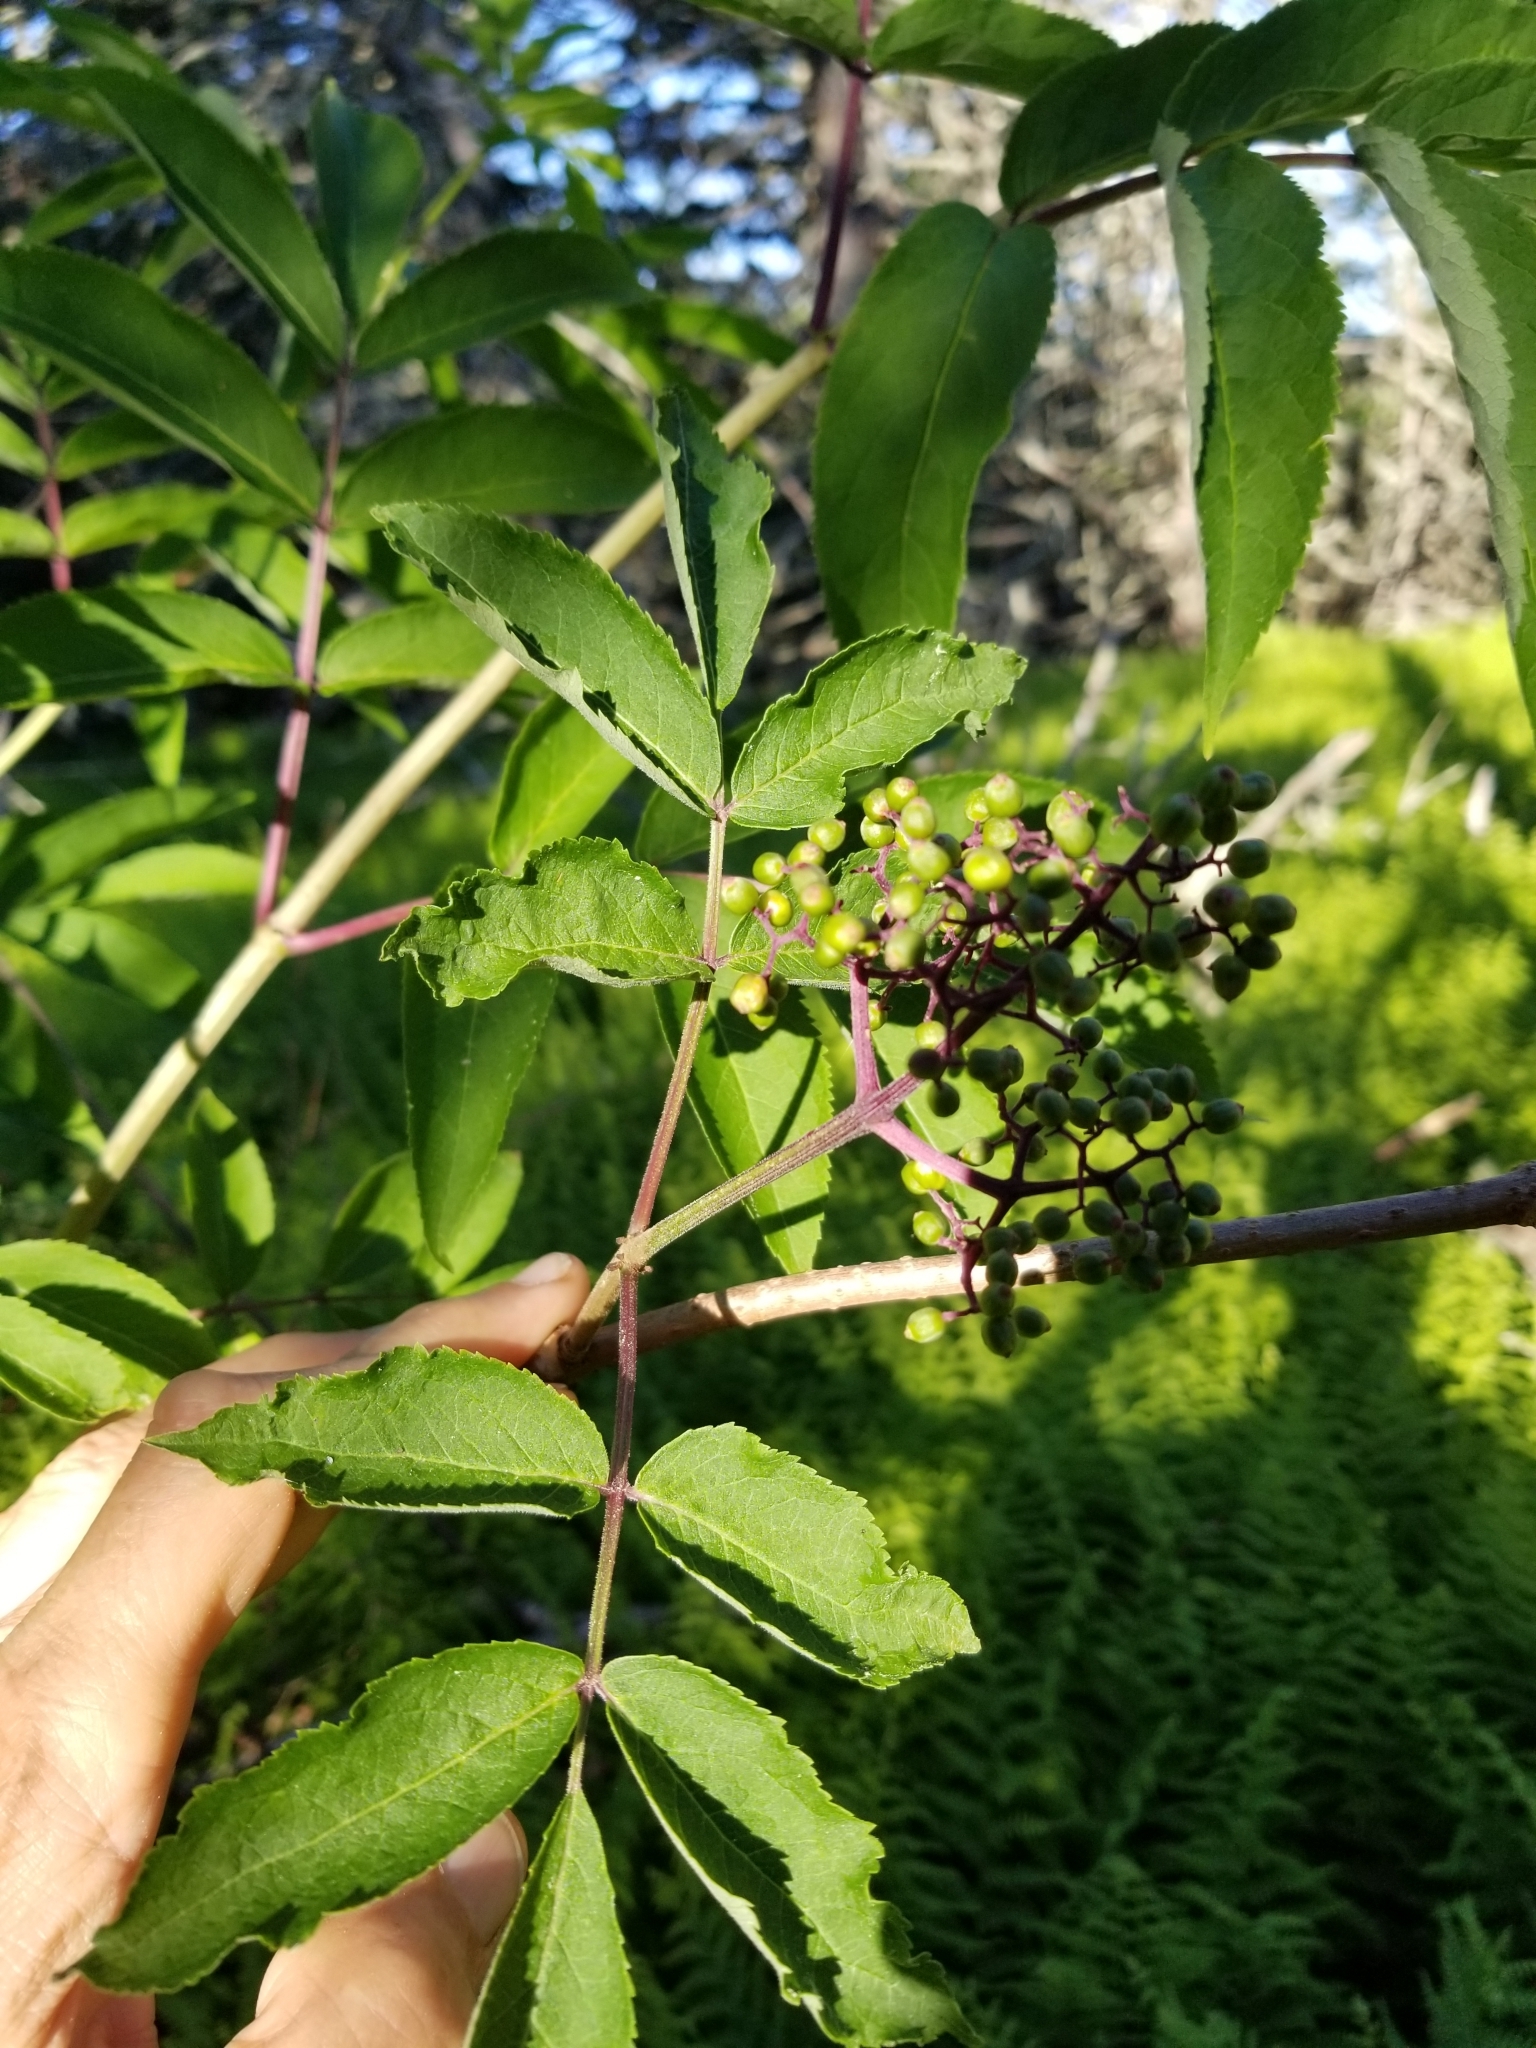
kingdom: Plantae
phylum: Tracheophyta
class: Magnoliopsida
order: Dipsacales
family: Viburnaceae
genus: Sambucus
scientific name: Sambucus racemosa
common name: Red-berried elder
